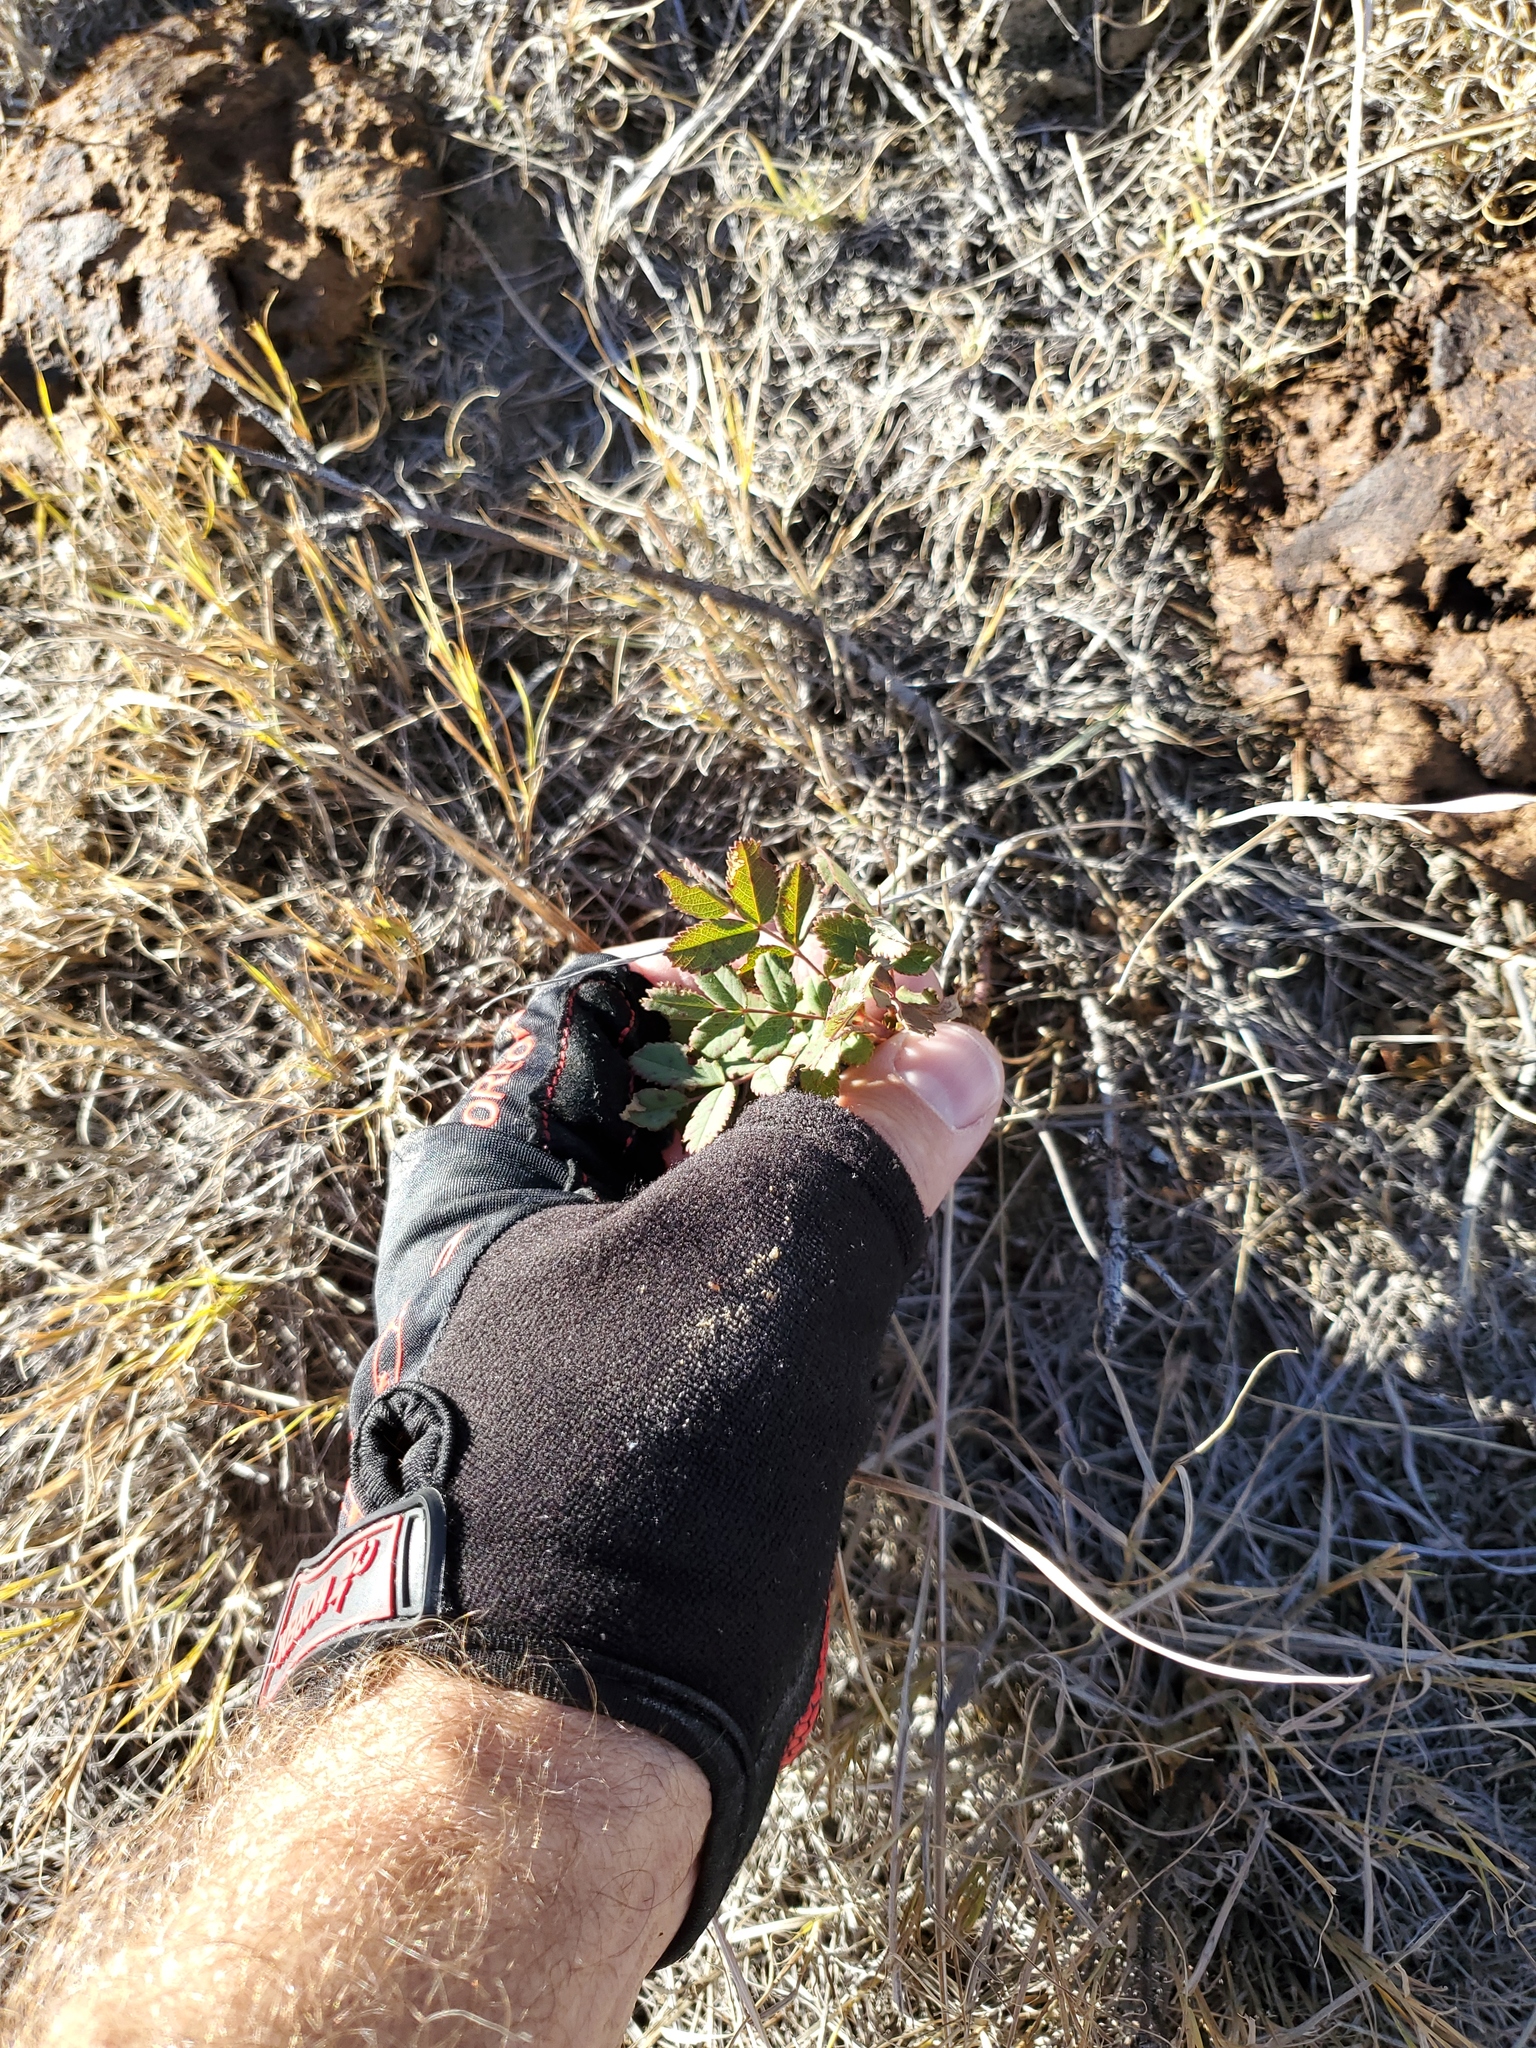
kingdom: Plantae
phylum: Tracheophyta
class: Magnoliopsida
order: Rosales
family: Rosaceae
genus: Rosa
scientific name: Rosa arkansana
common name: Prairie rose
